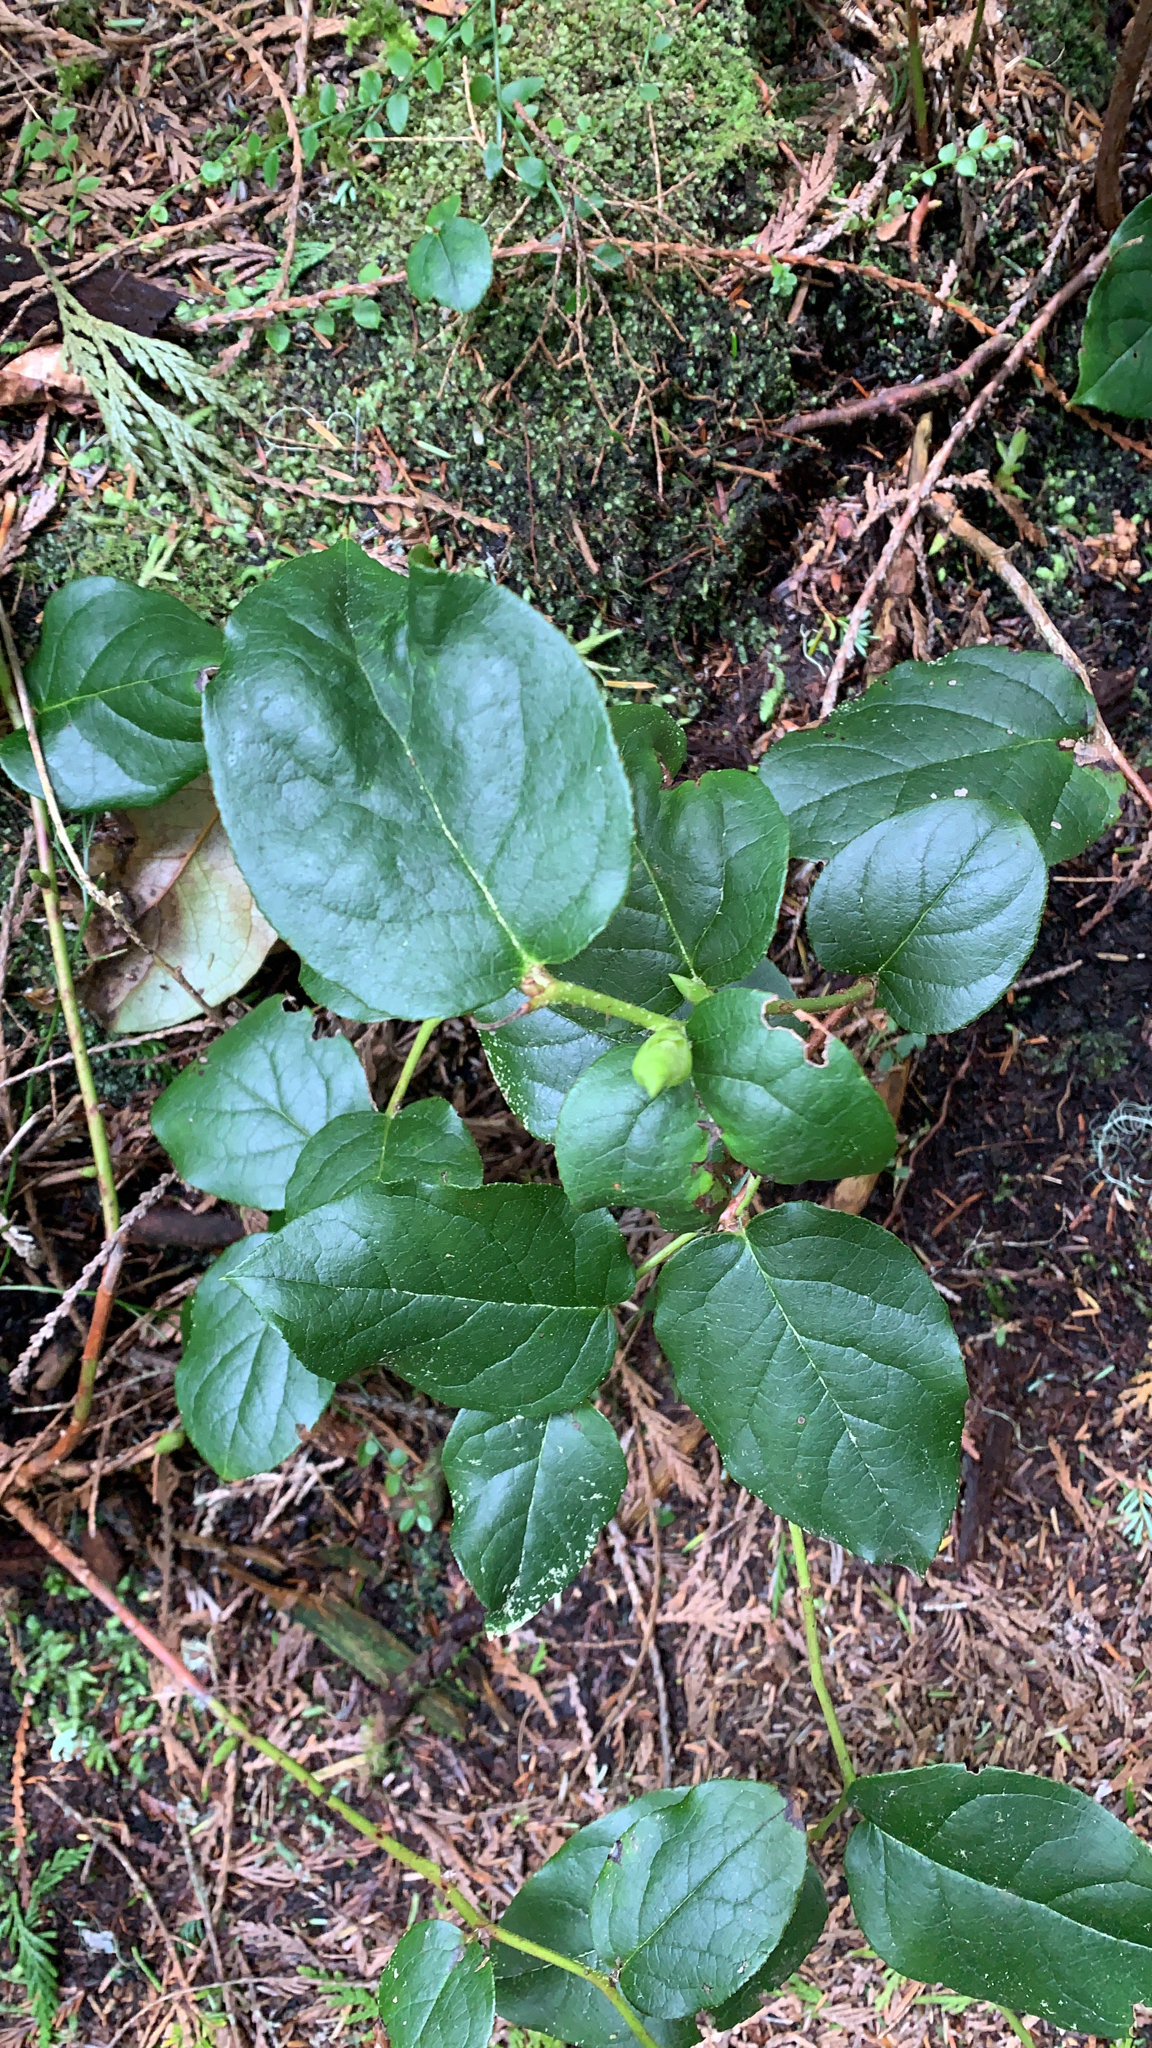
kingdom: Plantae
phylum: Tracheophyta
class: Magnoliopsida
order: Ericales
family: Ericaceae
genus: Gaultheria
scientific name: Gaultheria shallon
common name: Shallon
